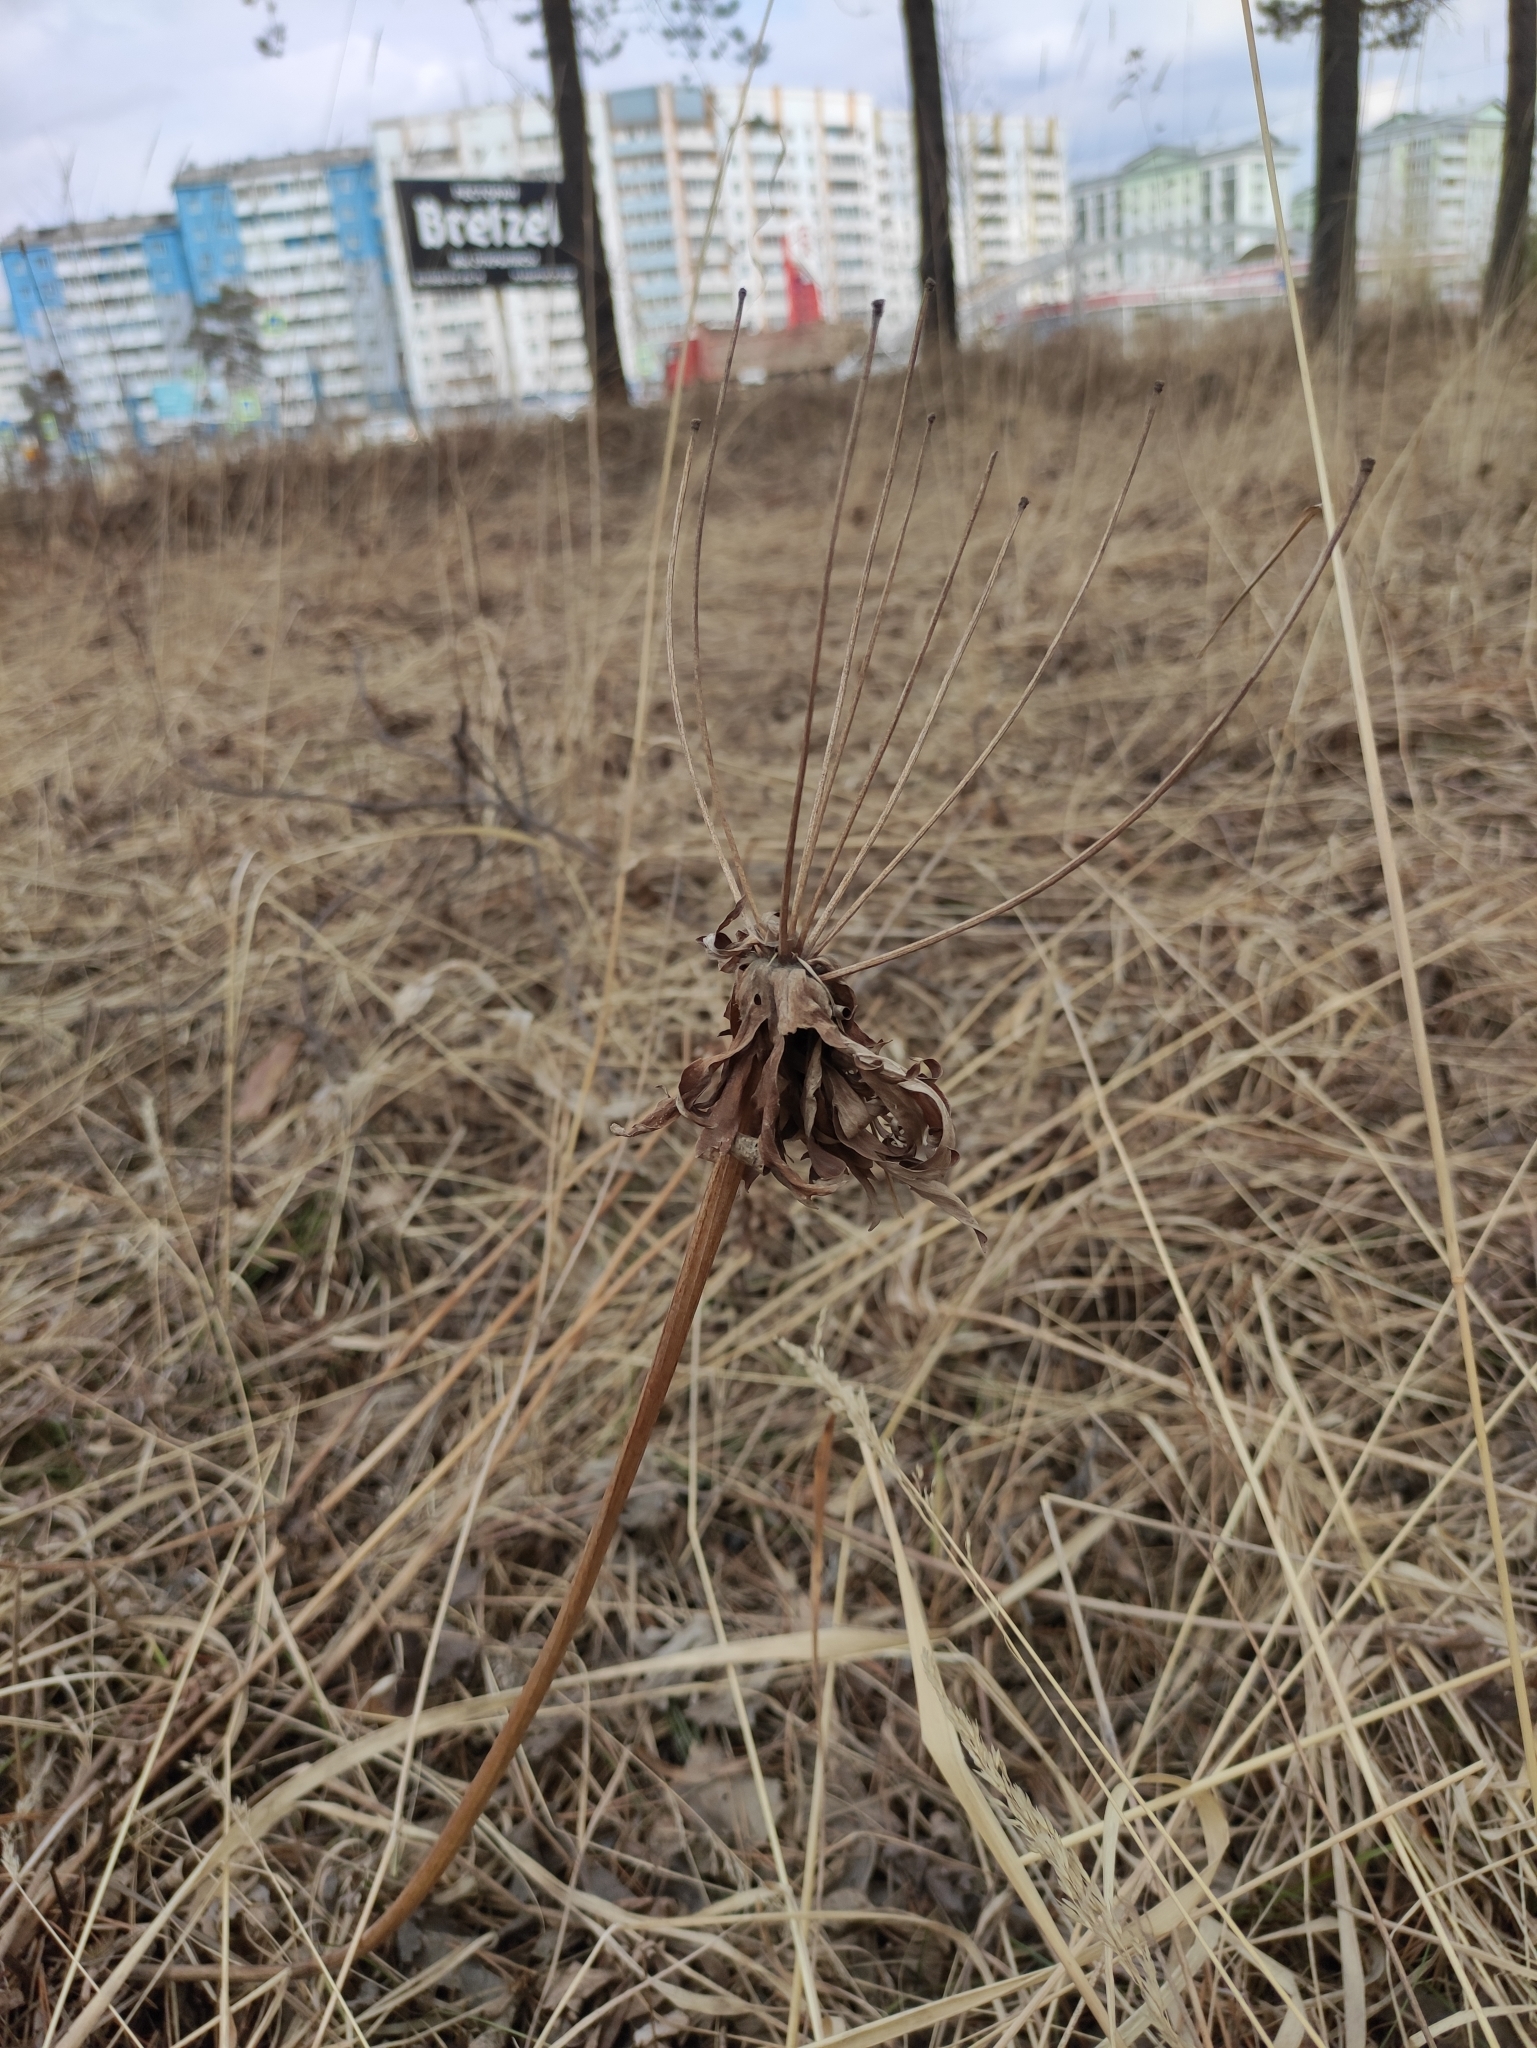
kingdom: Plantae
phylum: Tracheophyta
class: Magnoliopsida
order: Ranunculales
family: Ranunculaceae
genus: Anemonastrum
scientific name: Anemonastrum narcissiflorum
